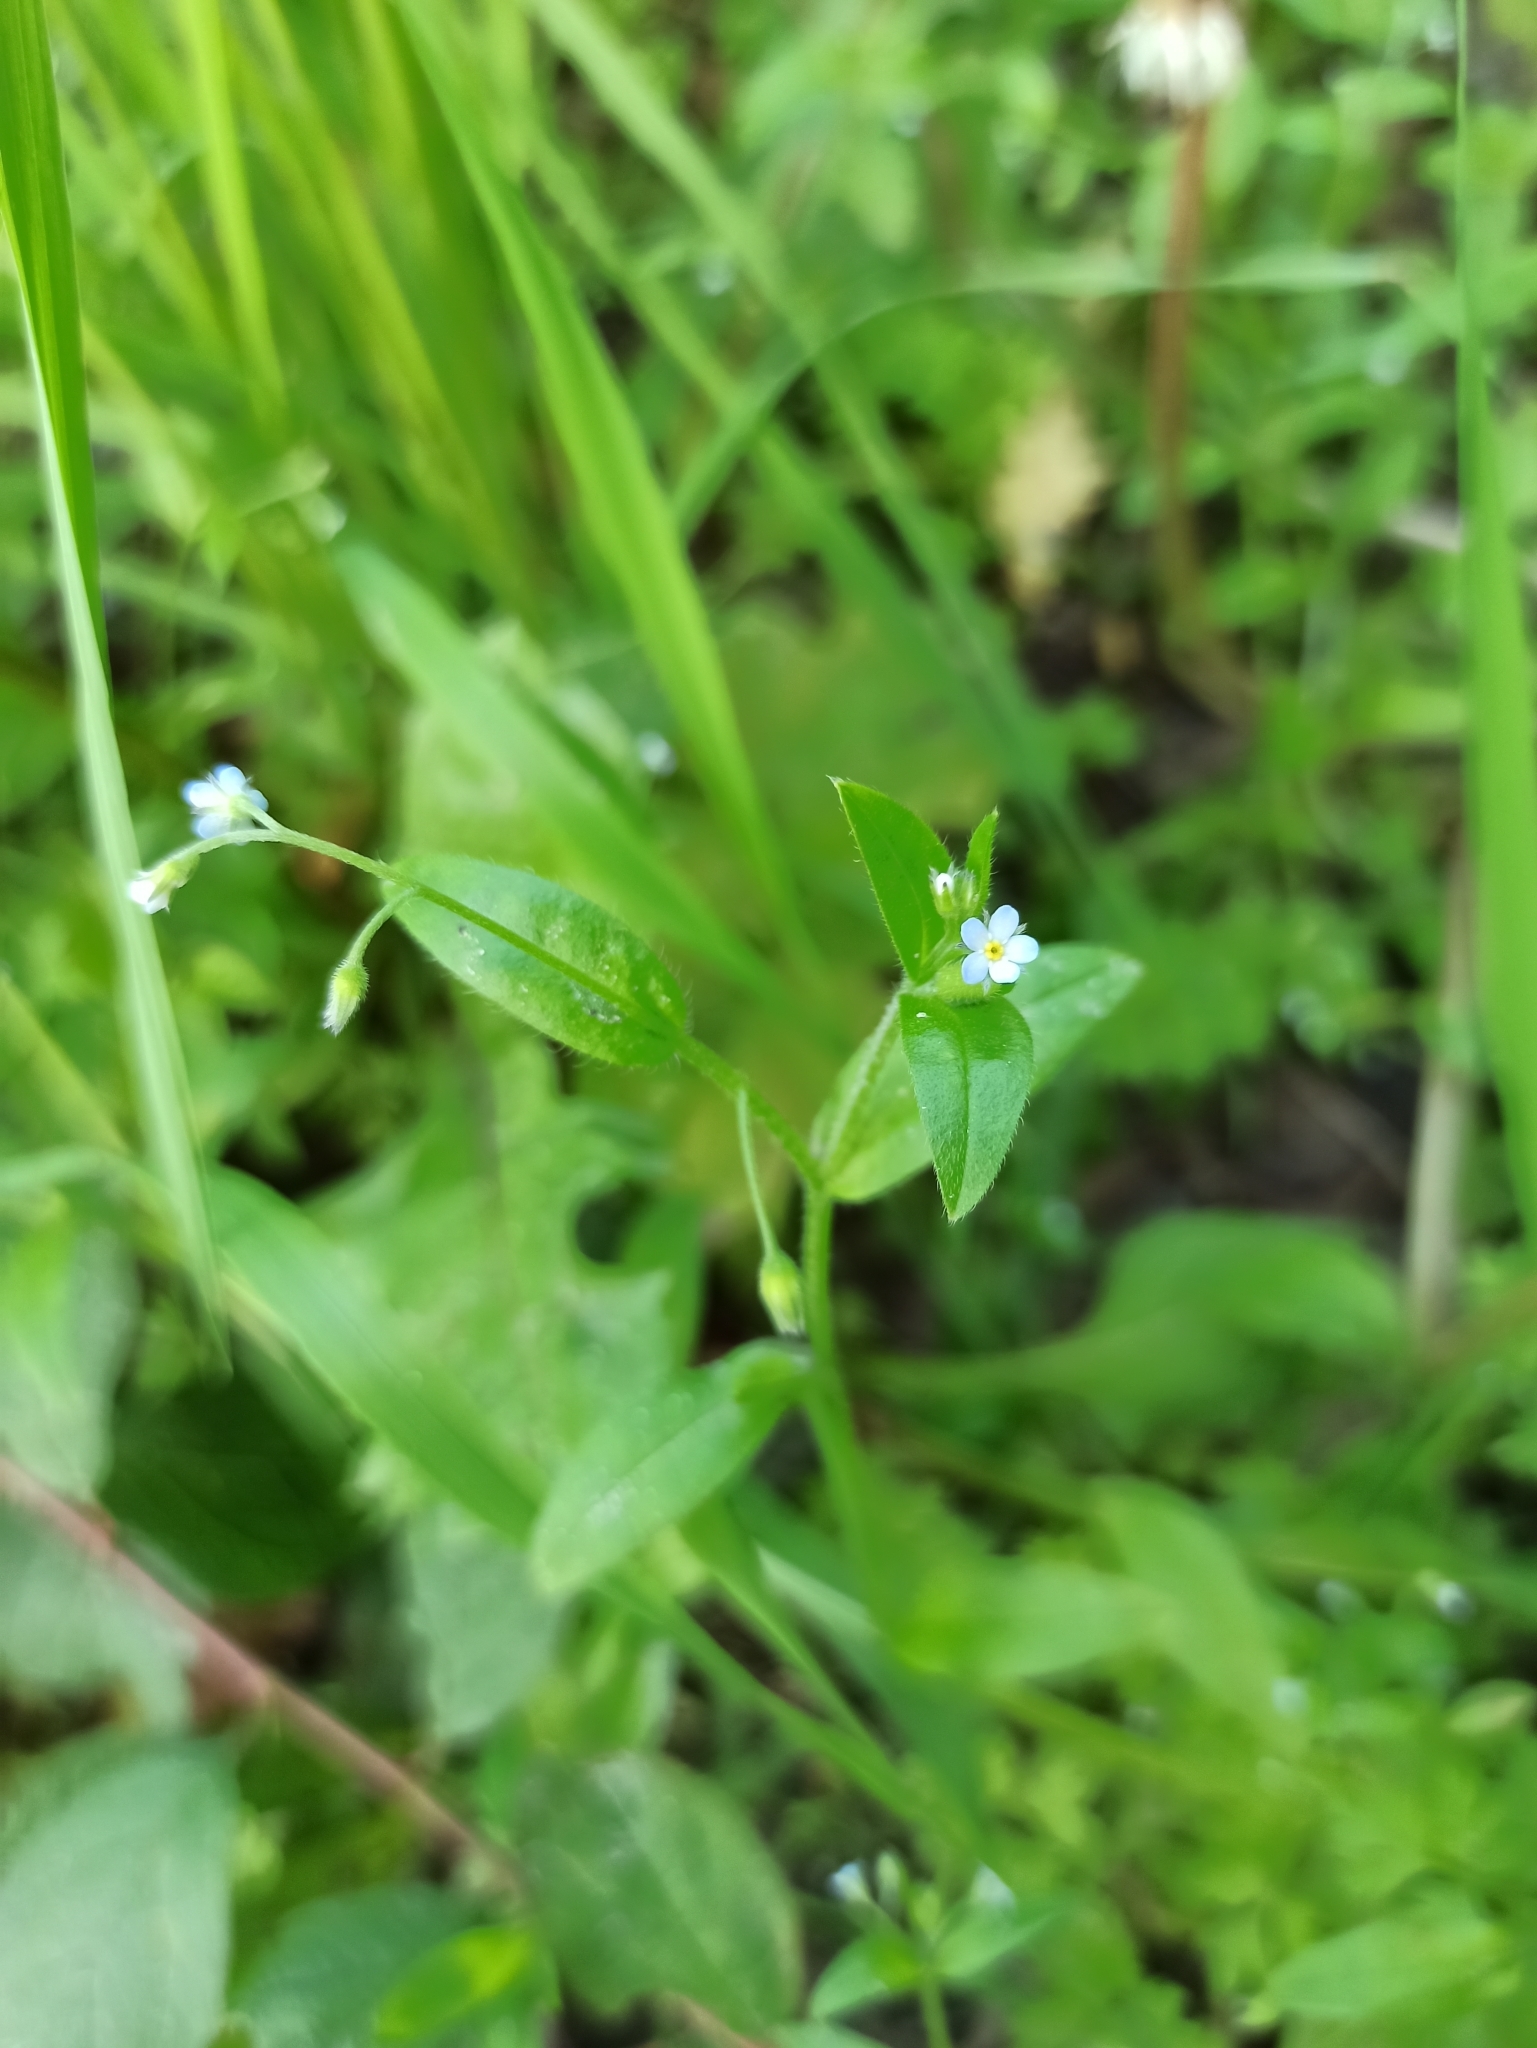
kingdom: Plantae
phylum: Tracheophyta
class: Magnoliopsida
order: Boraginales
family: Boraginaceae
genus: Myosotis
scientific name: Myosotis sparsiflora
